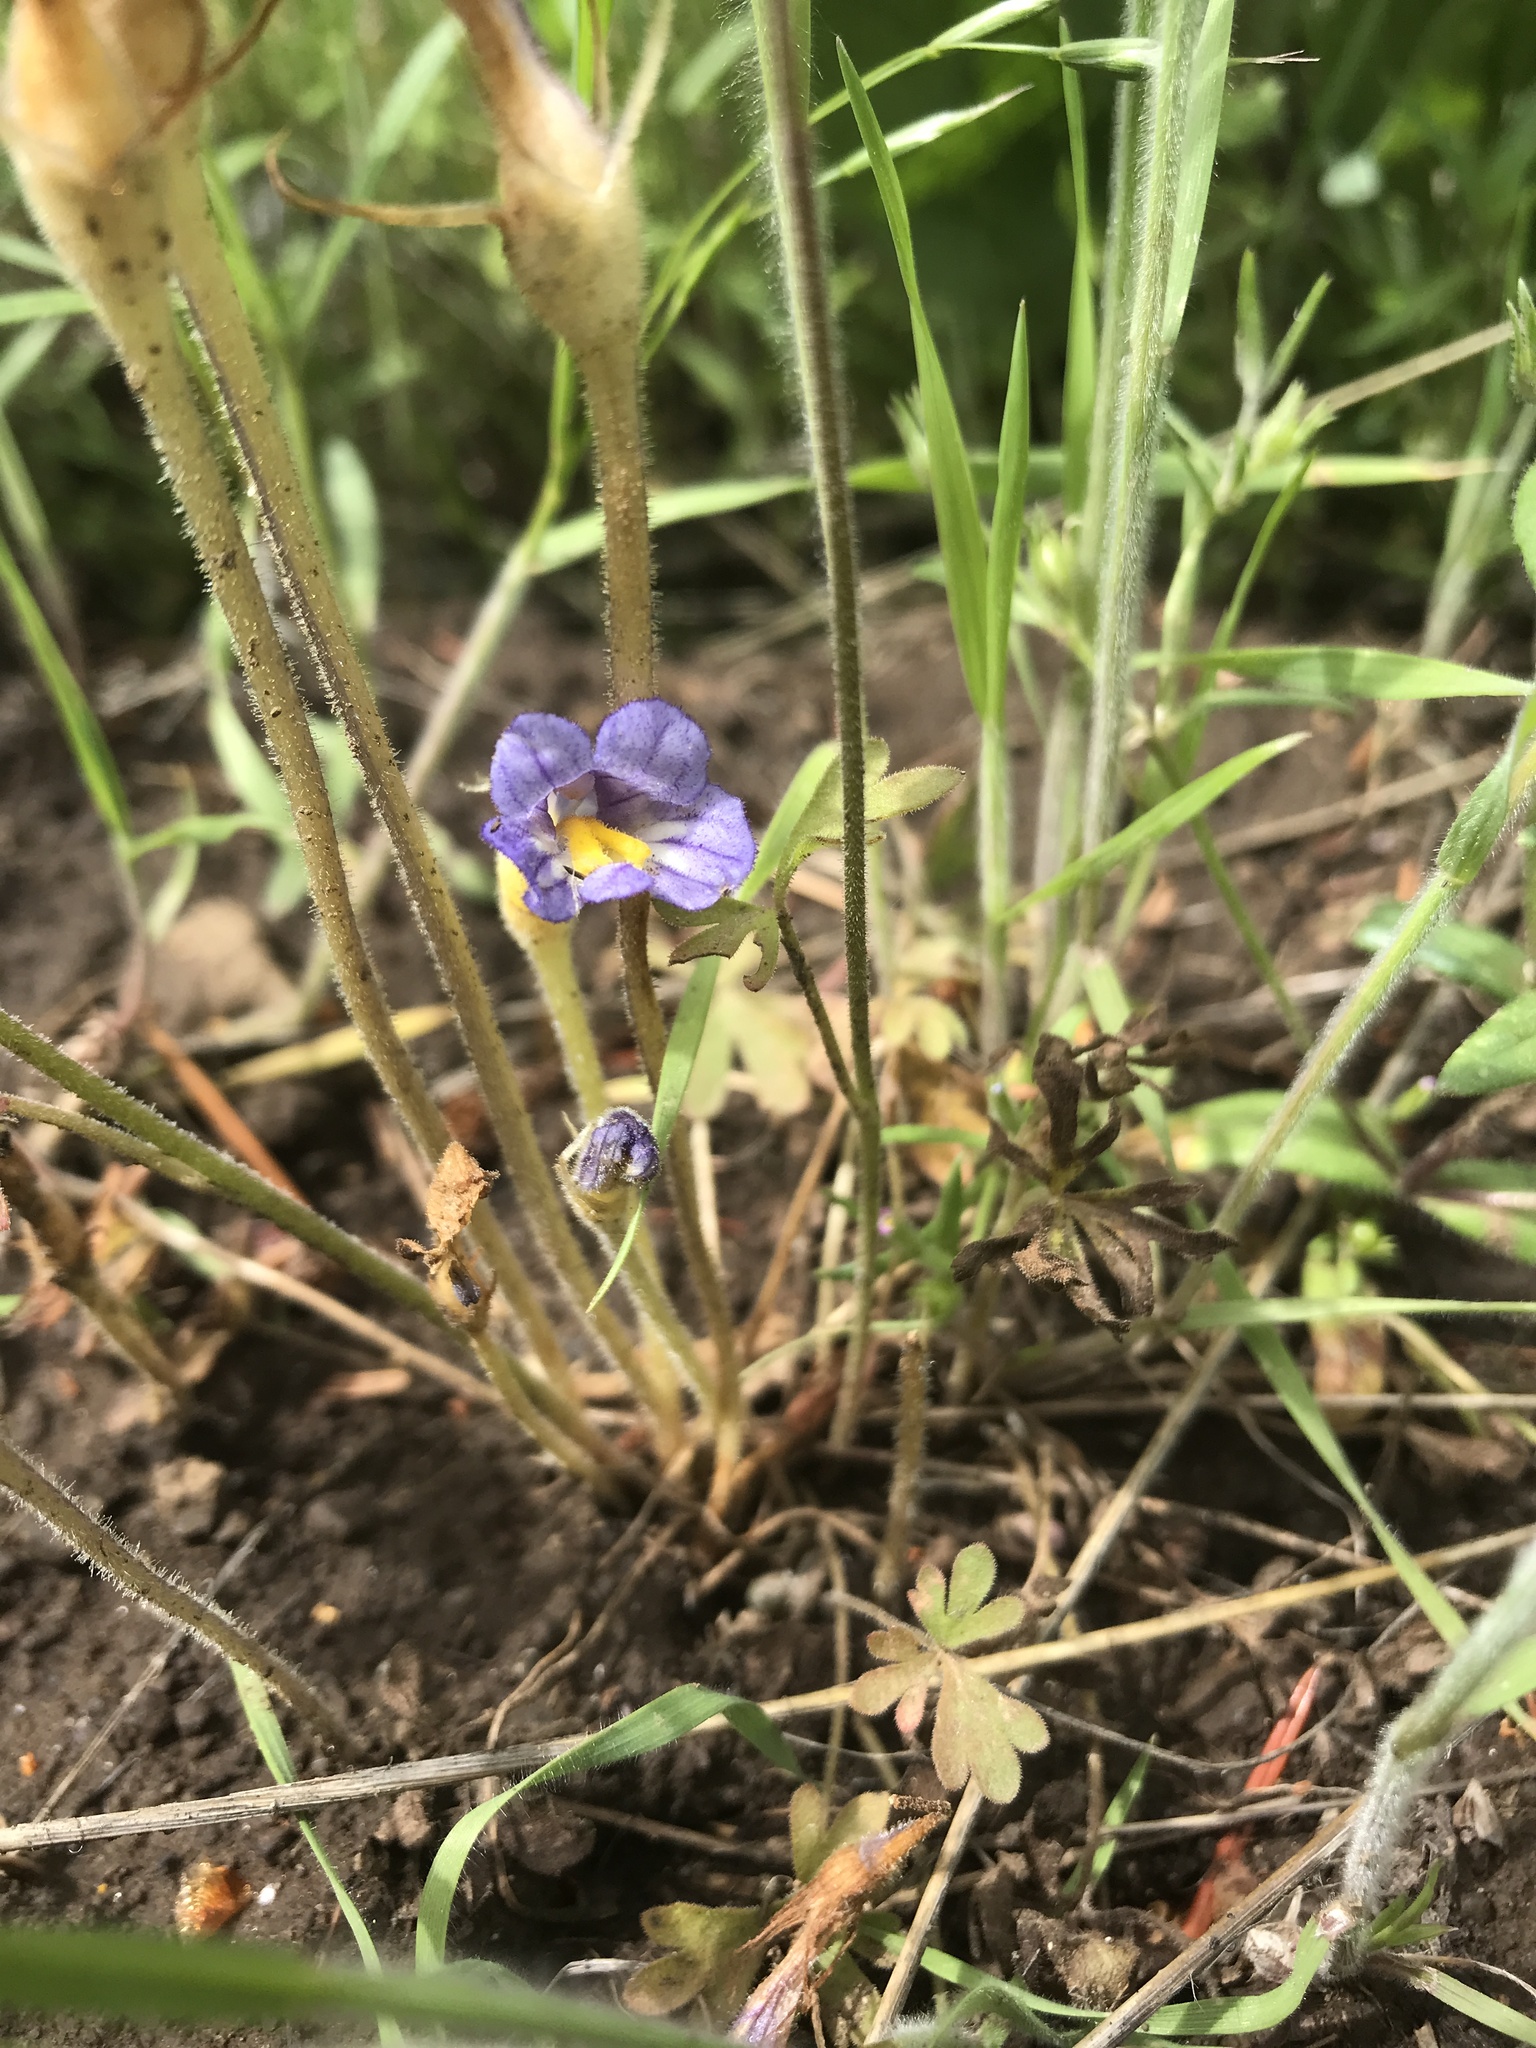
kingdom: Plantae
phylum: Tracheophyta
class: Magnoliopsida
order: Lamiales
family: Orobanchaceae
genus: Aphyllon
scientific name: Aphyllon uniflorum
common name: One-flowered broomrape
